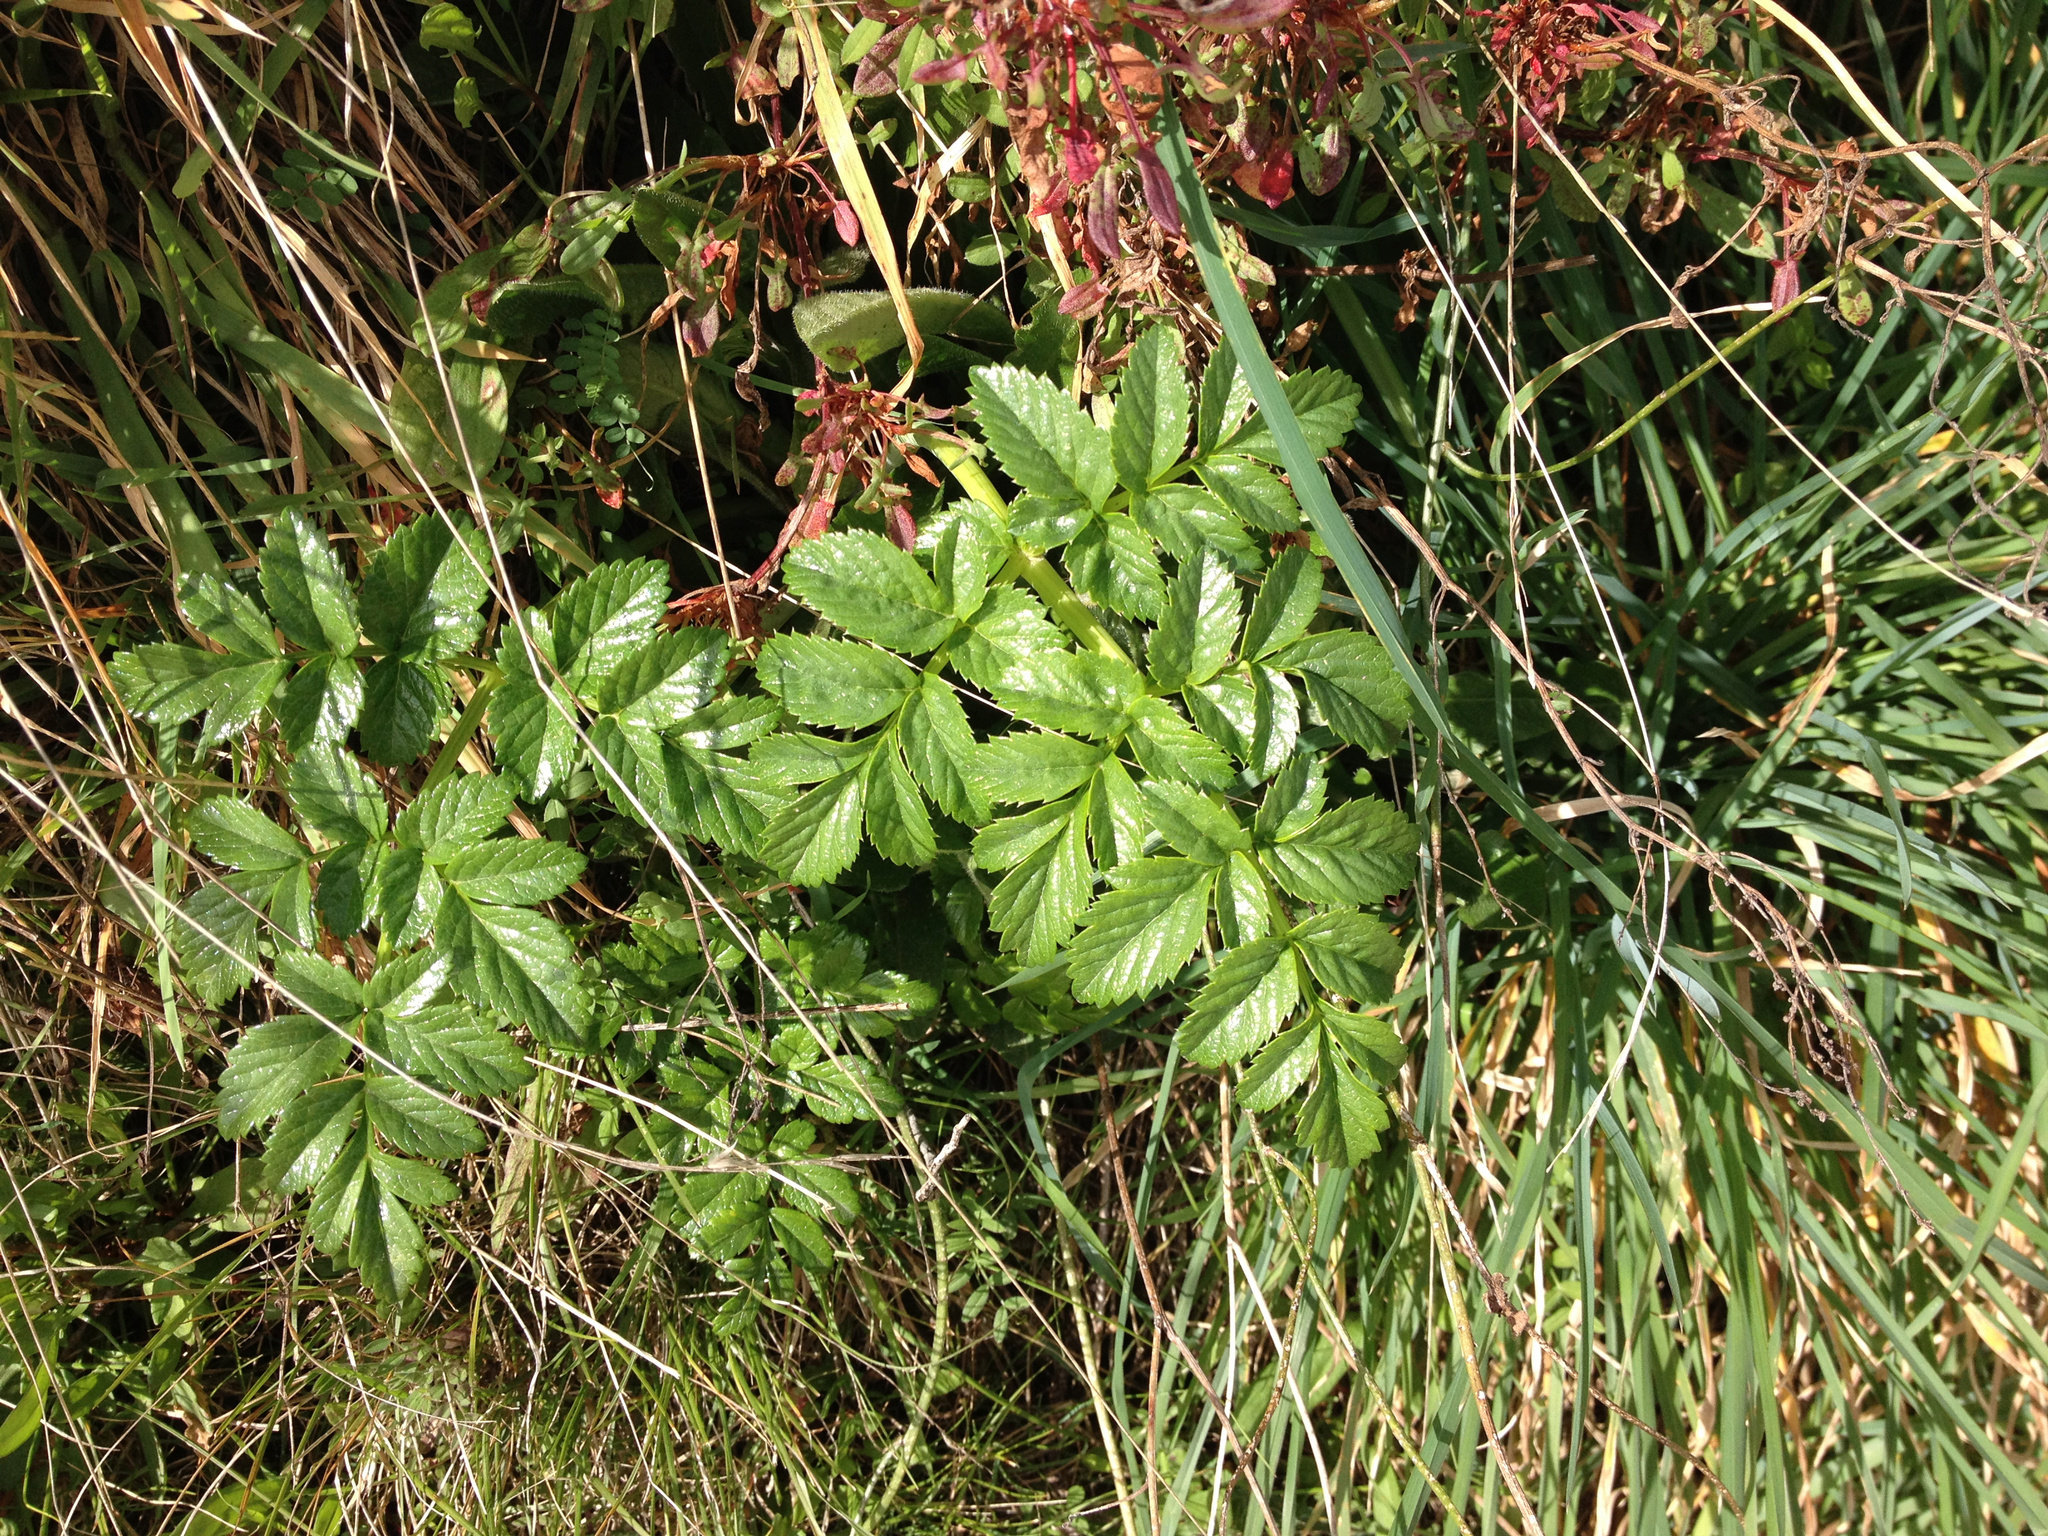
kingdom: Plantae
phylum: Tracheophyta
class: Magnoliopsida
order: Apiales
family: Apiaceae
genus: Angelica
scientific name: Angelica pachycarpa
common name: Portuguese angelica
